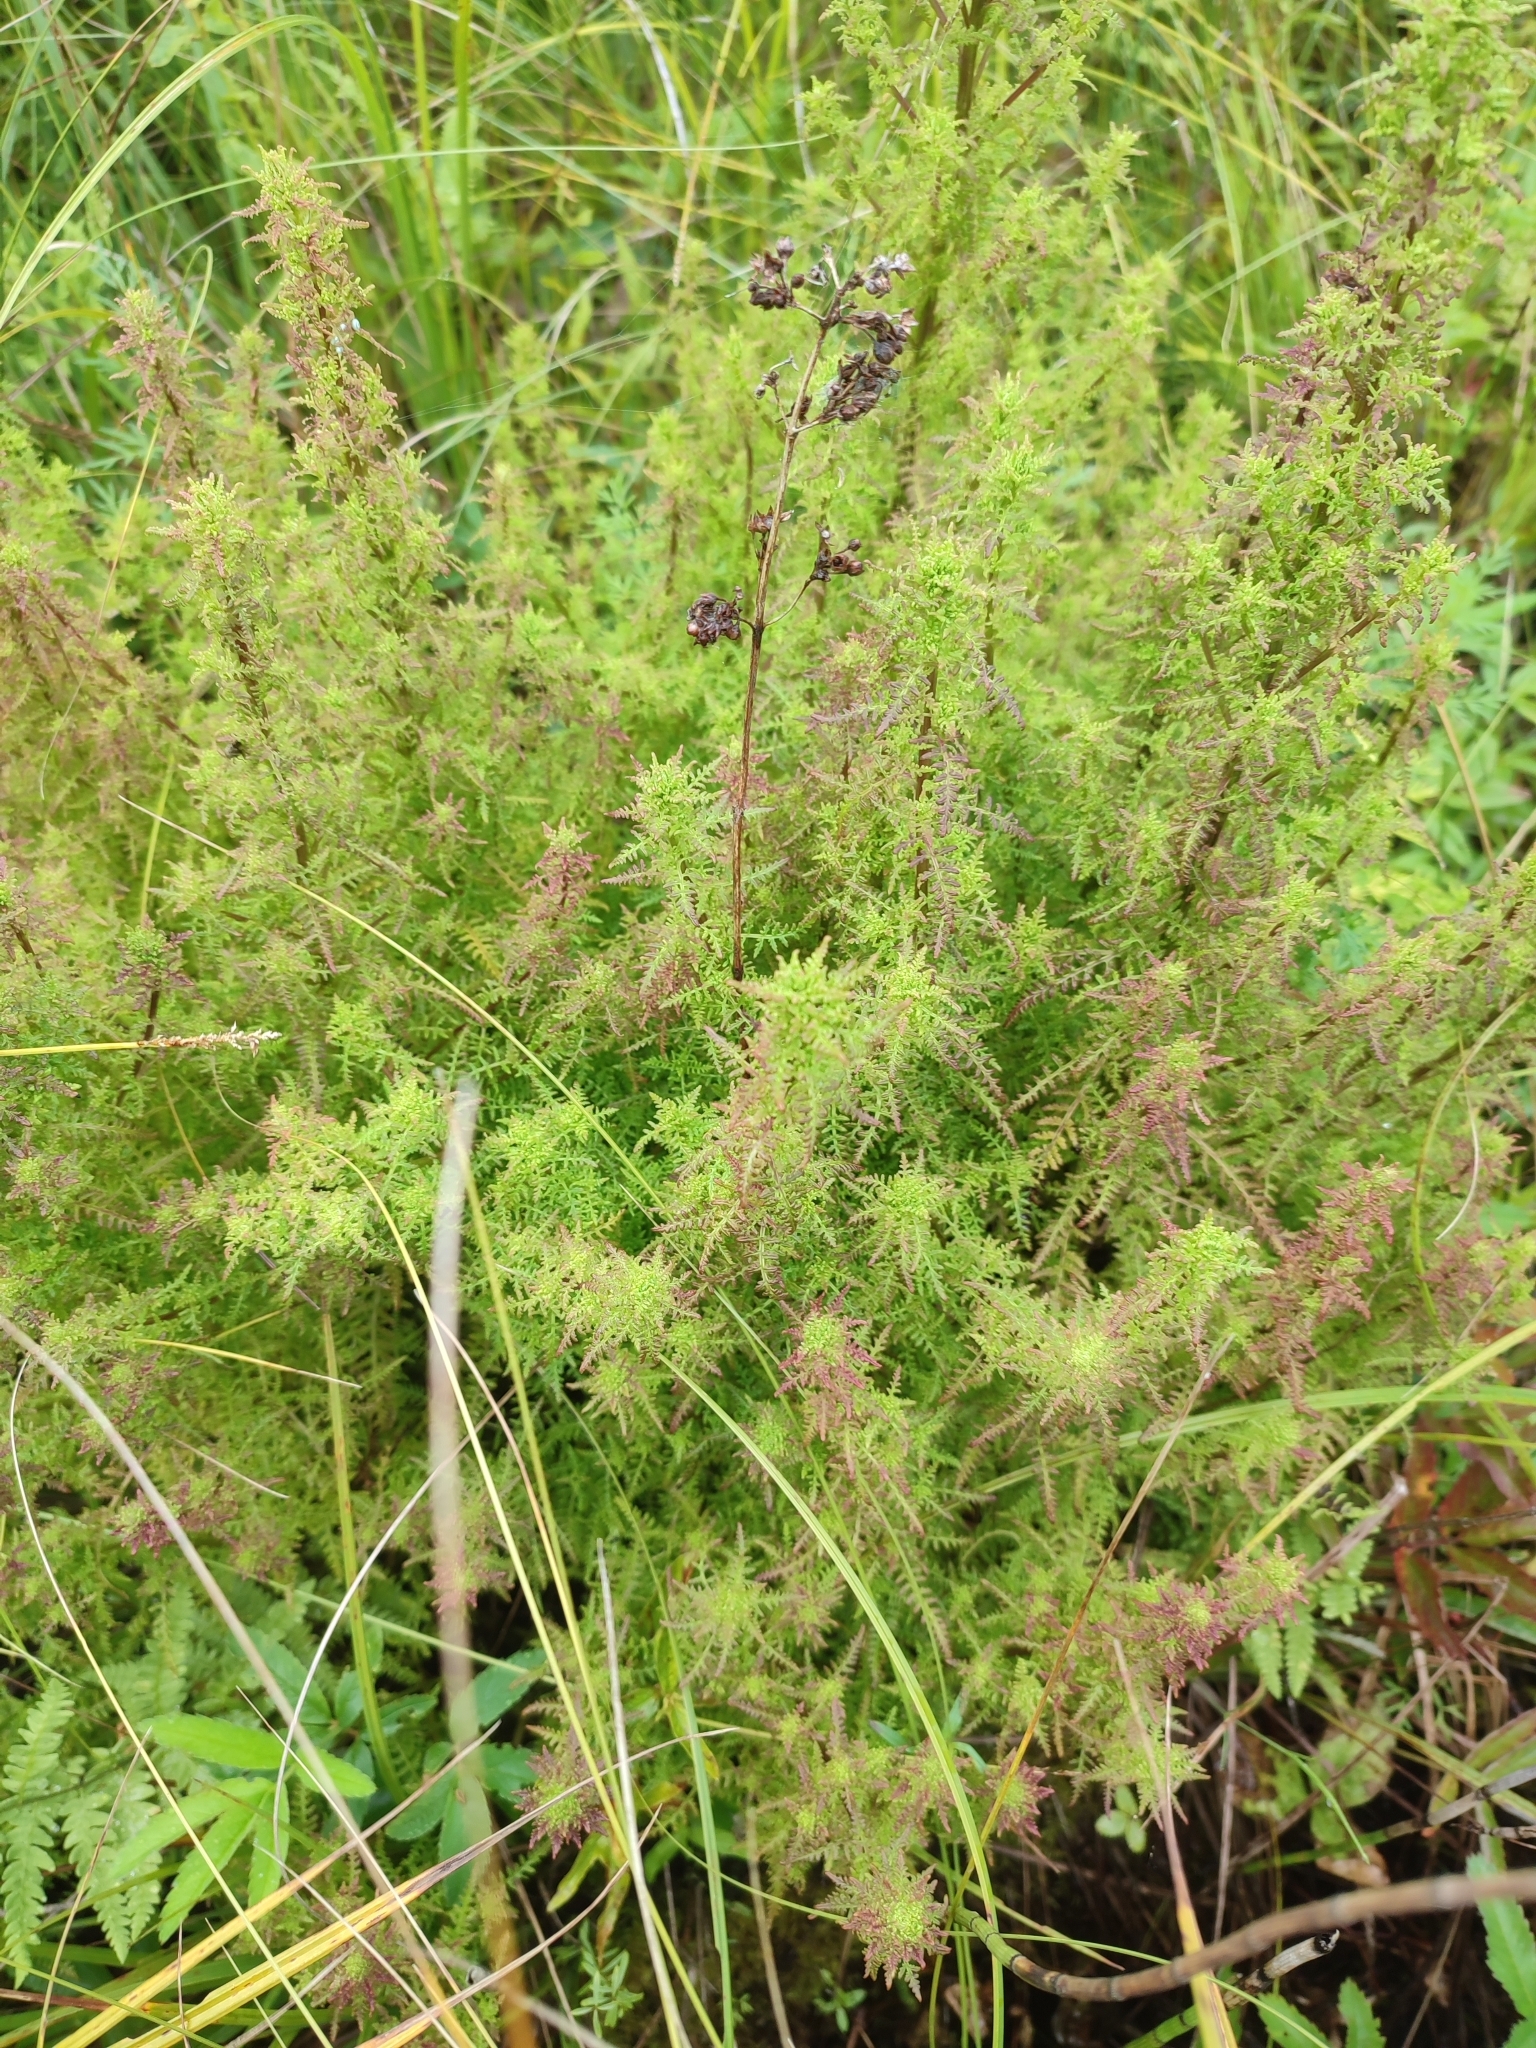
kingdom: Plantae
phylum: Tracheophyta
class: Magnoliopsida
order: Lamiales
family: Orobanchaceae
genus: Pedicularis
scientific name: Pedicularis palustris
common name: Marsh lousewort
